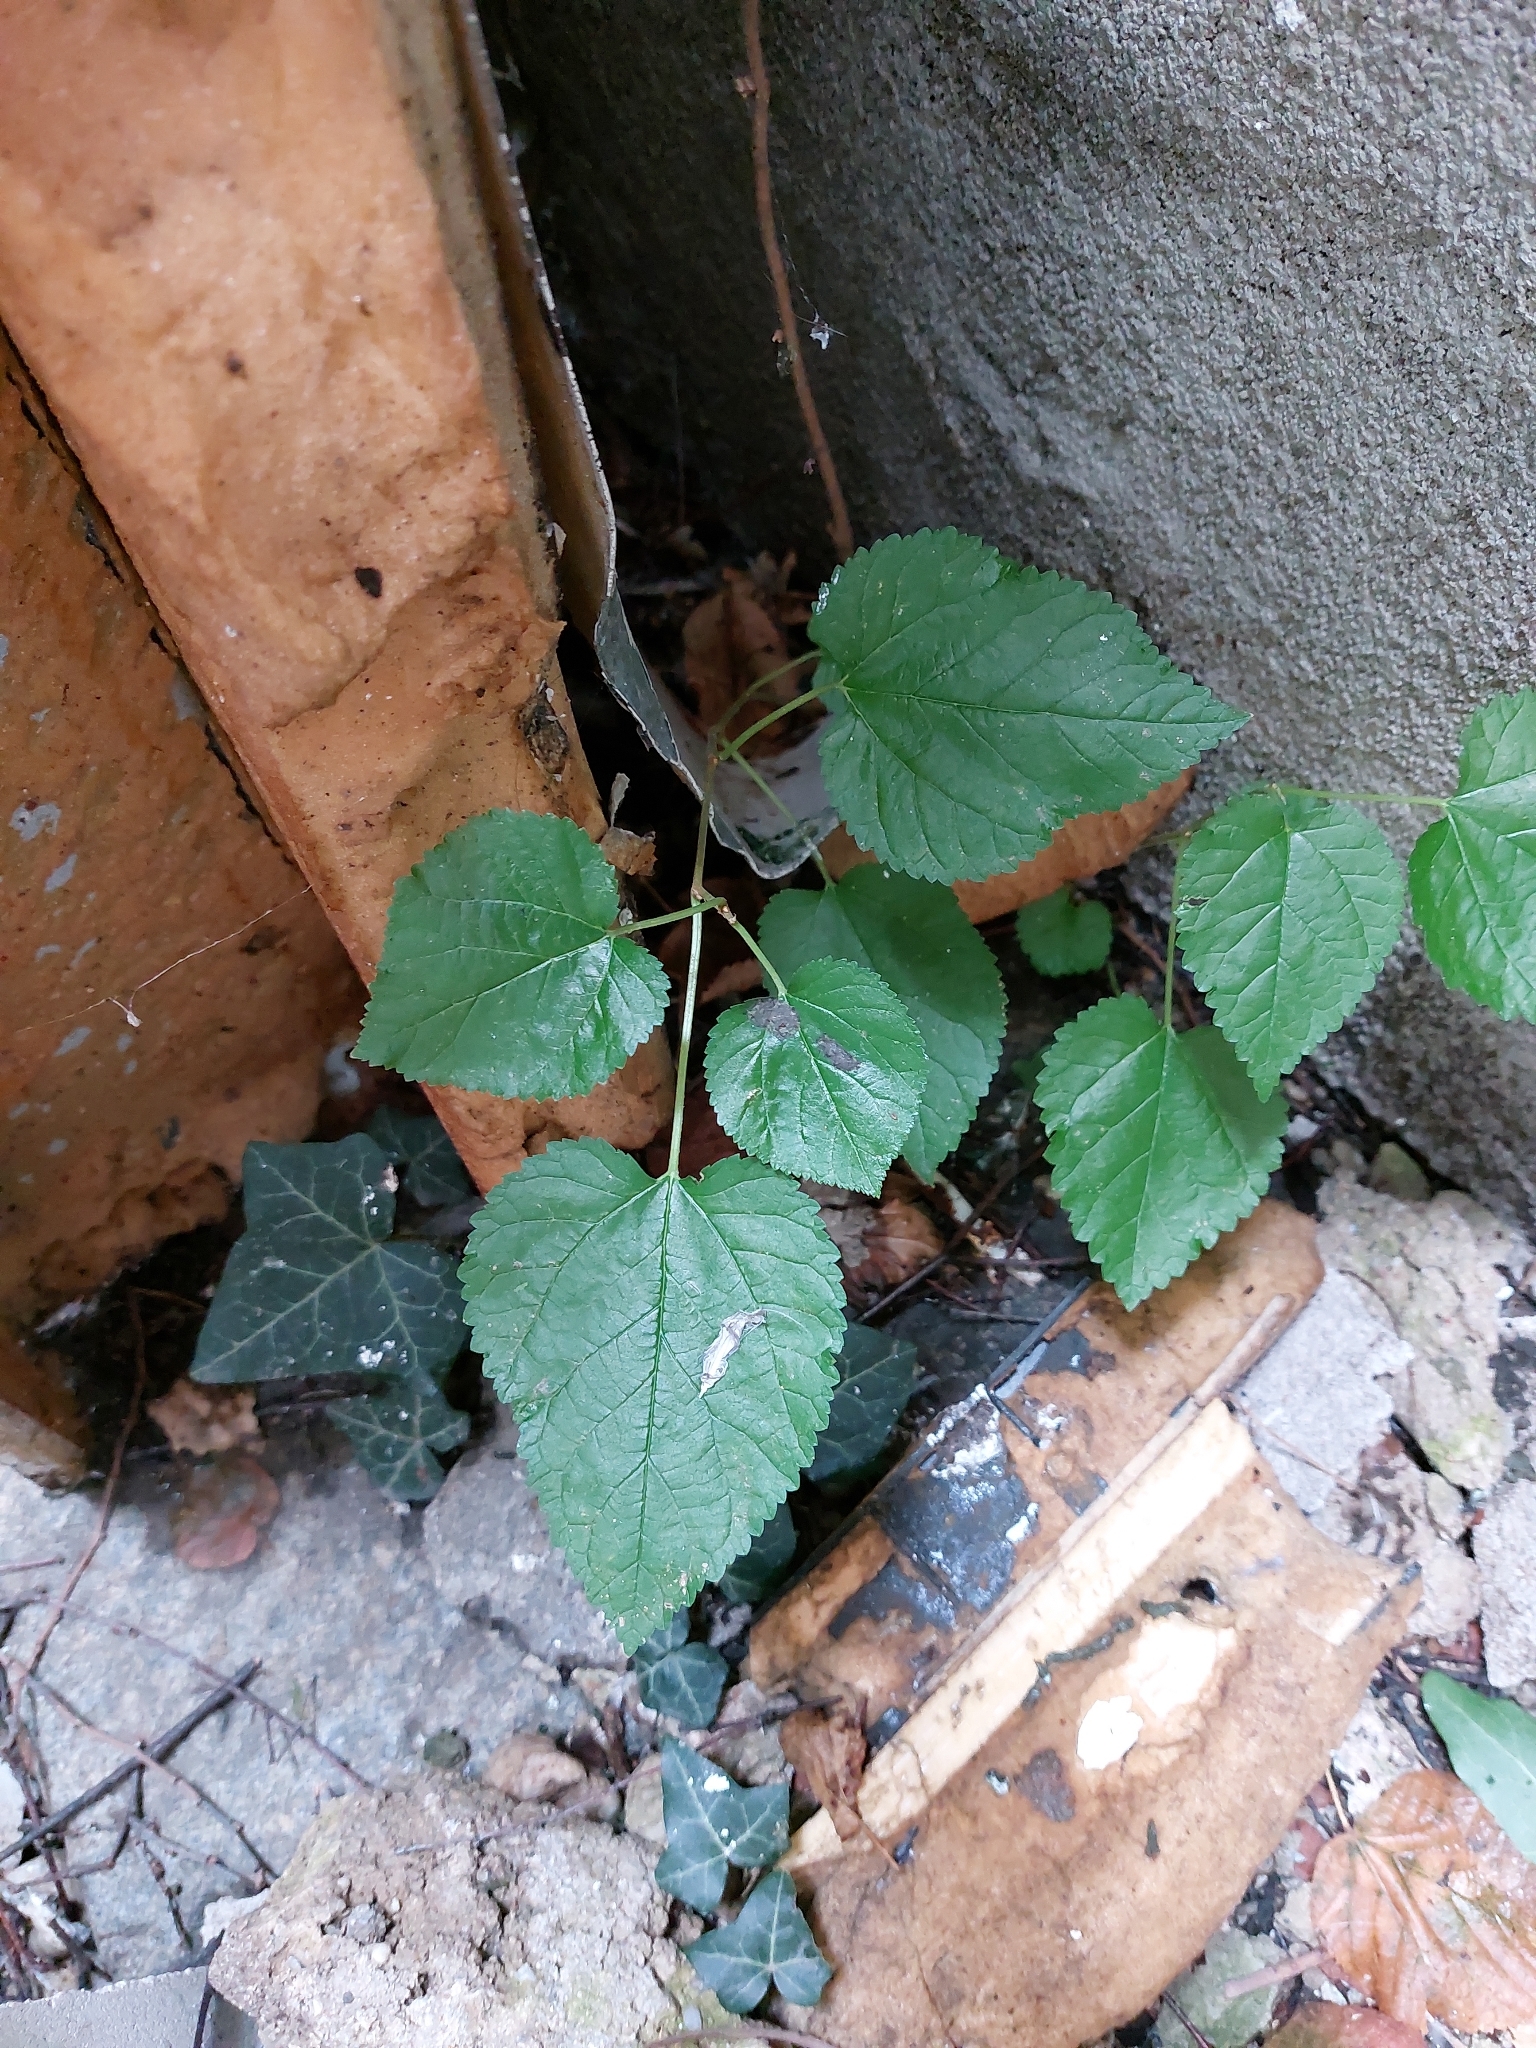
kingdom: Plantae
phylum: Tracheophyta
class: Magnoliopsida
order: Rosales
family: Moraceae
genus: Morus
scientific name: Morus alba
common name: White mulberry
